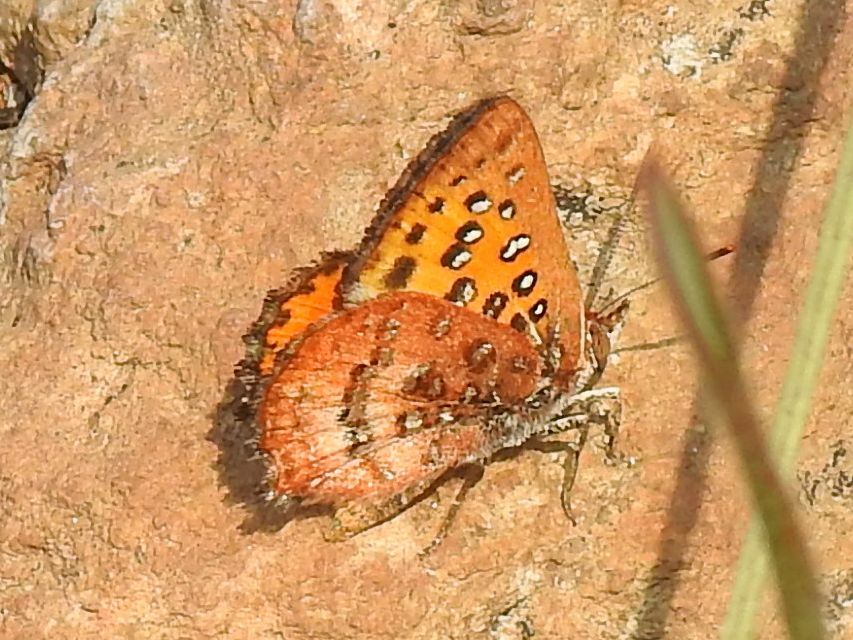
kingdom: Animalia
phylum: Arthropoda
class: Insecta
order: Lepidoptera
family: Lycaenidae
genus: Aloeides
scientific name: Aloeides swanepoeli
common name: Swanepoel's copper
